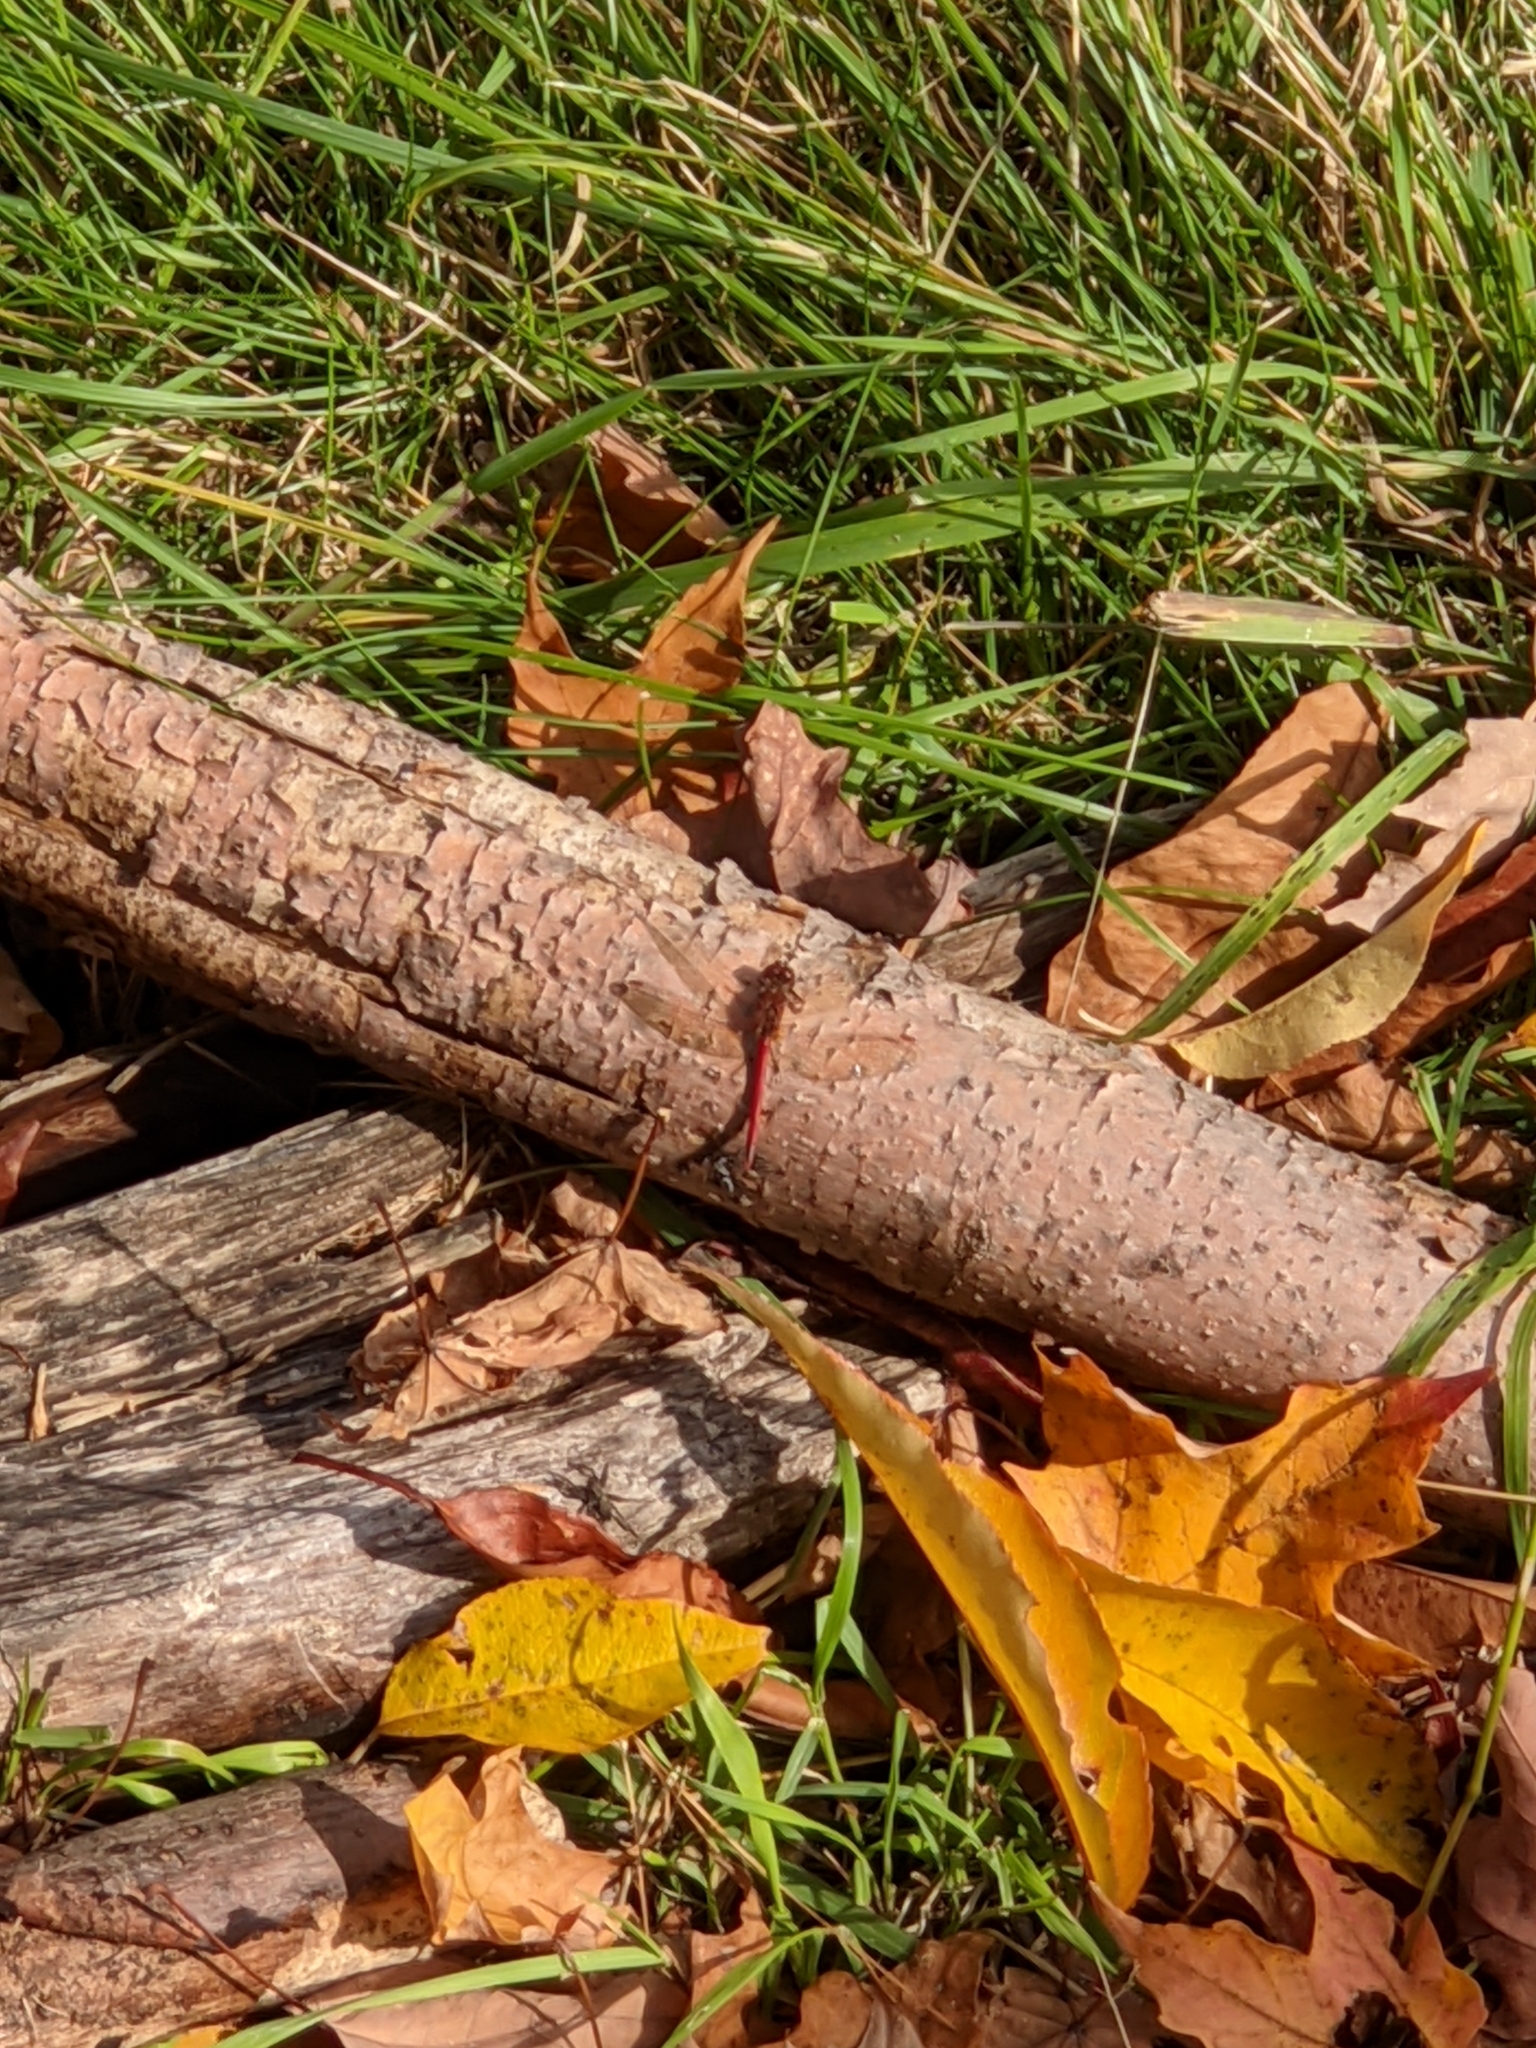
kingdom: Animalia
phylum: Arthropoda
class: Insecta
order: Odonata
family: Libellulidae
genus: Sympetrum
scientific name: Sympetrum vicinum
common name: Autumn meadowhawk
